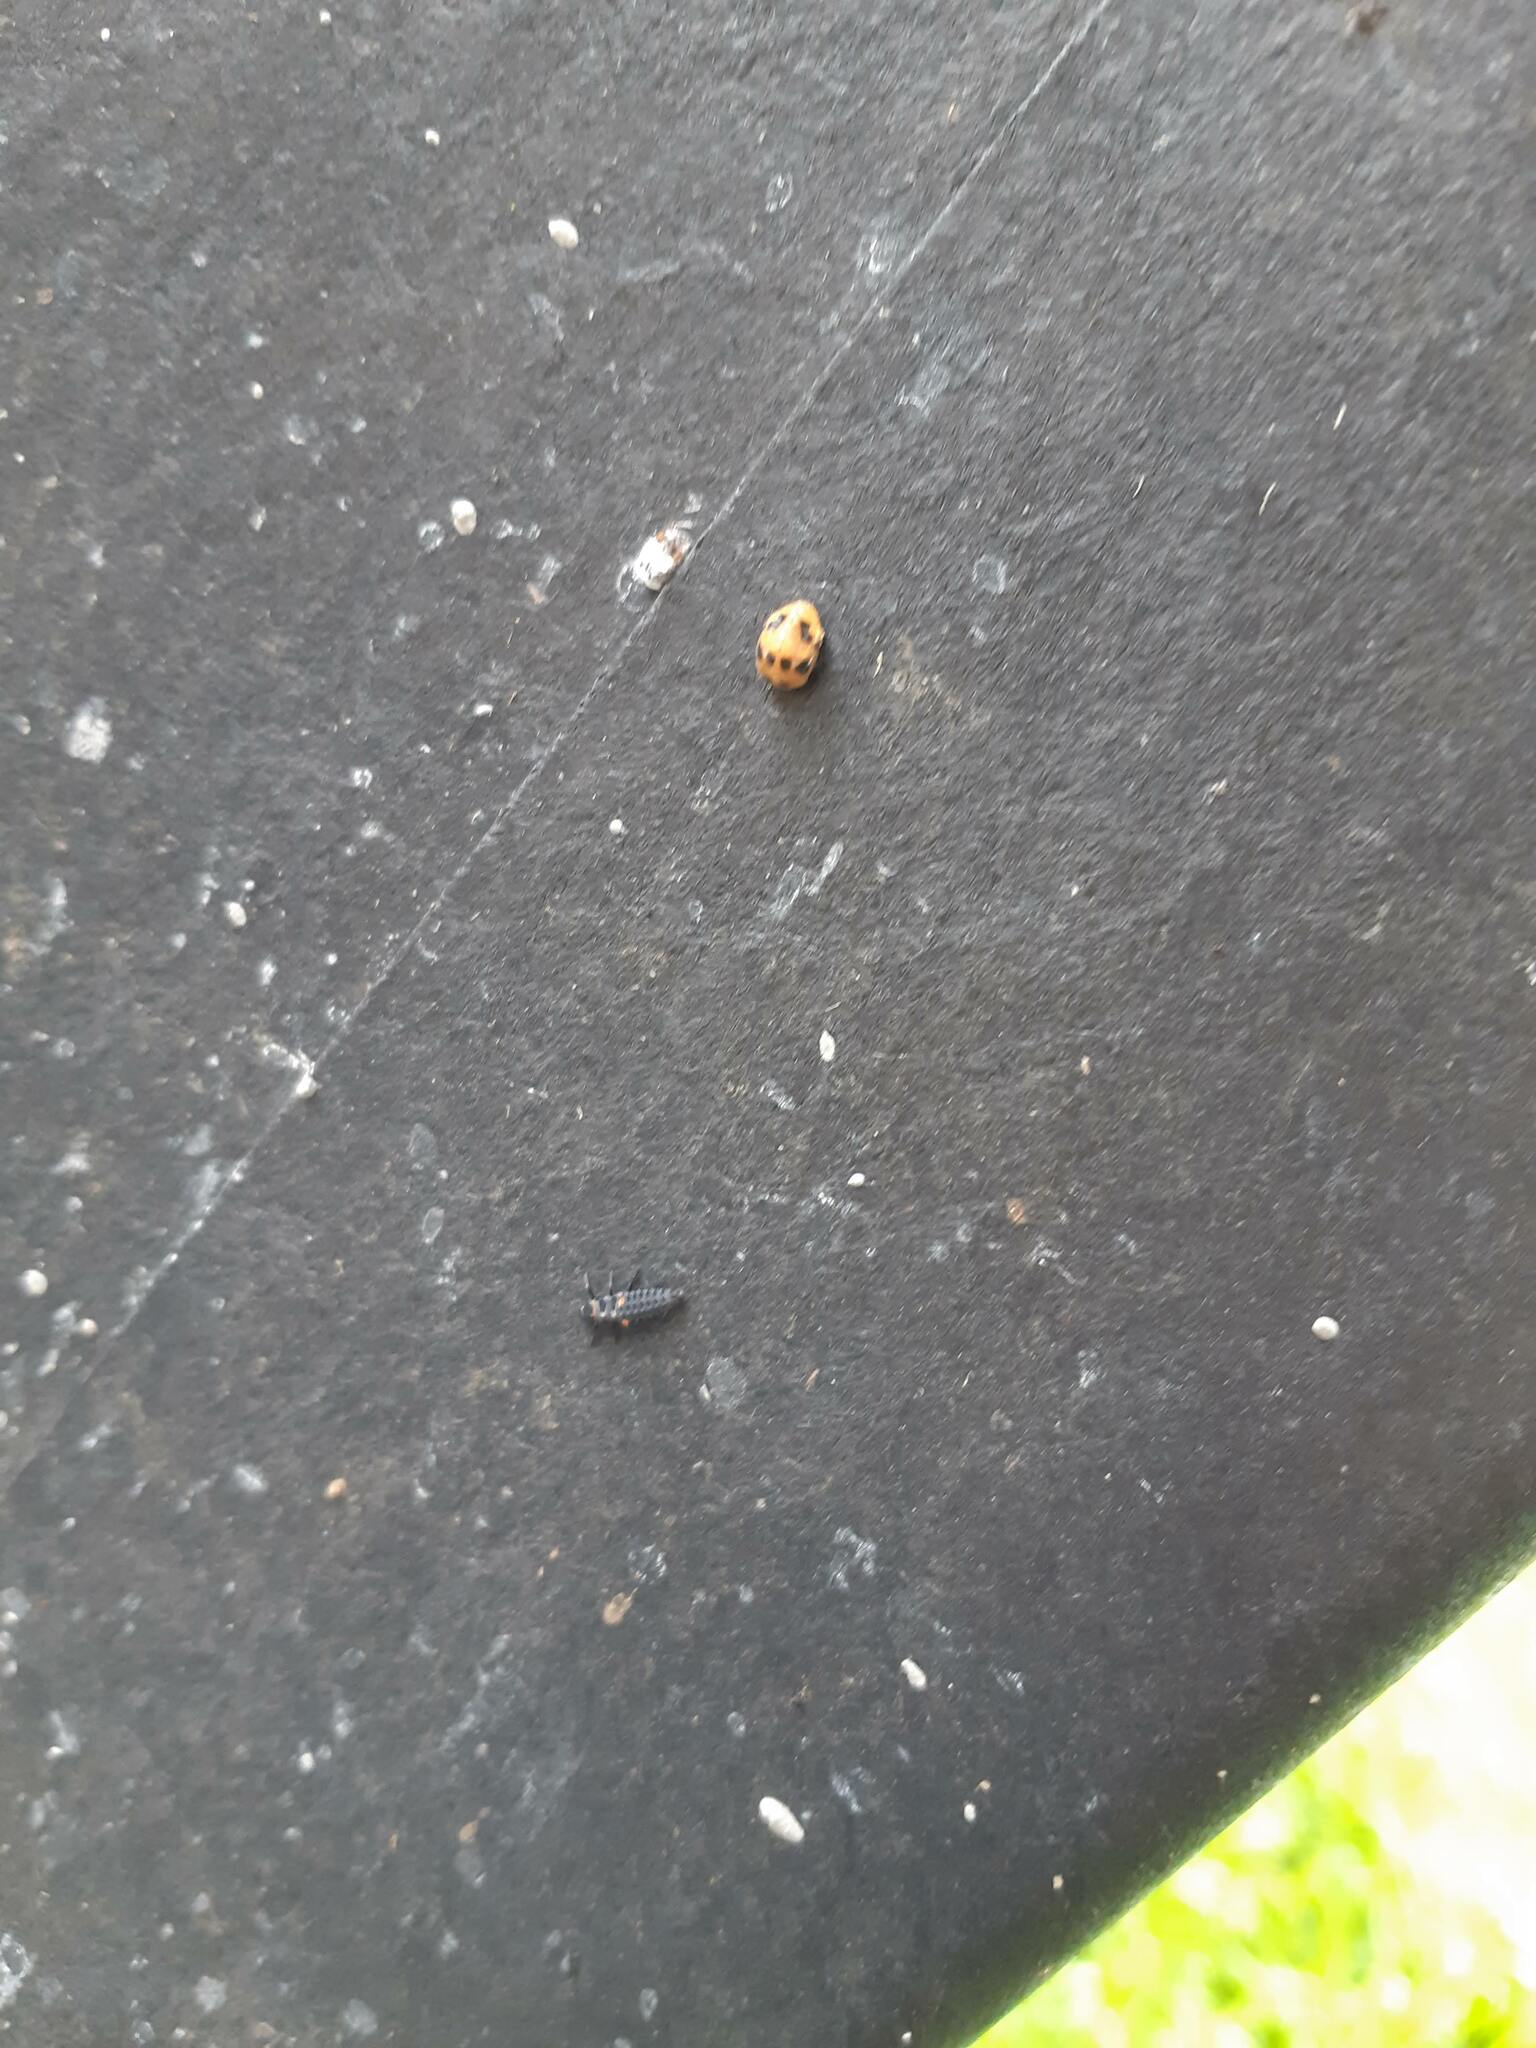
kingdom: Animalia
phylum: Arthropoda
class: Insecta
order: Coleoptera
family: Coccinellidae
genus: Coelophora
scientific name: Coelophora inaequalis
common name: Common australian lady beetle
